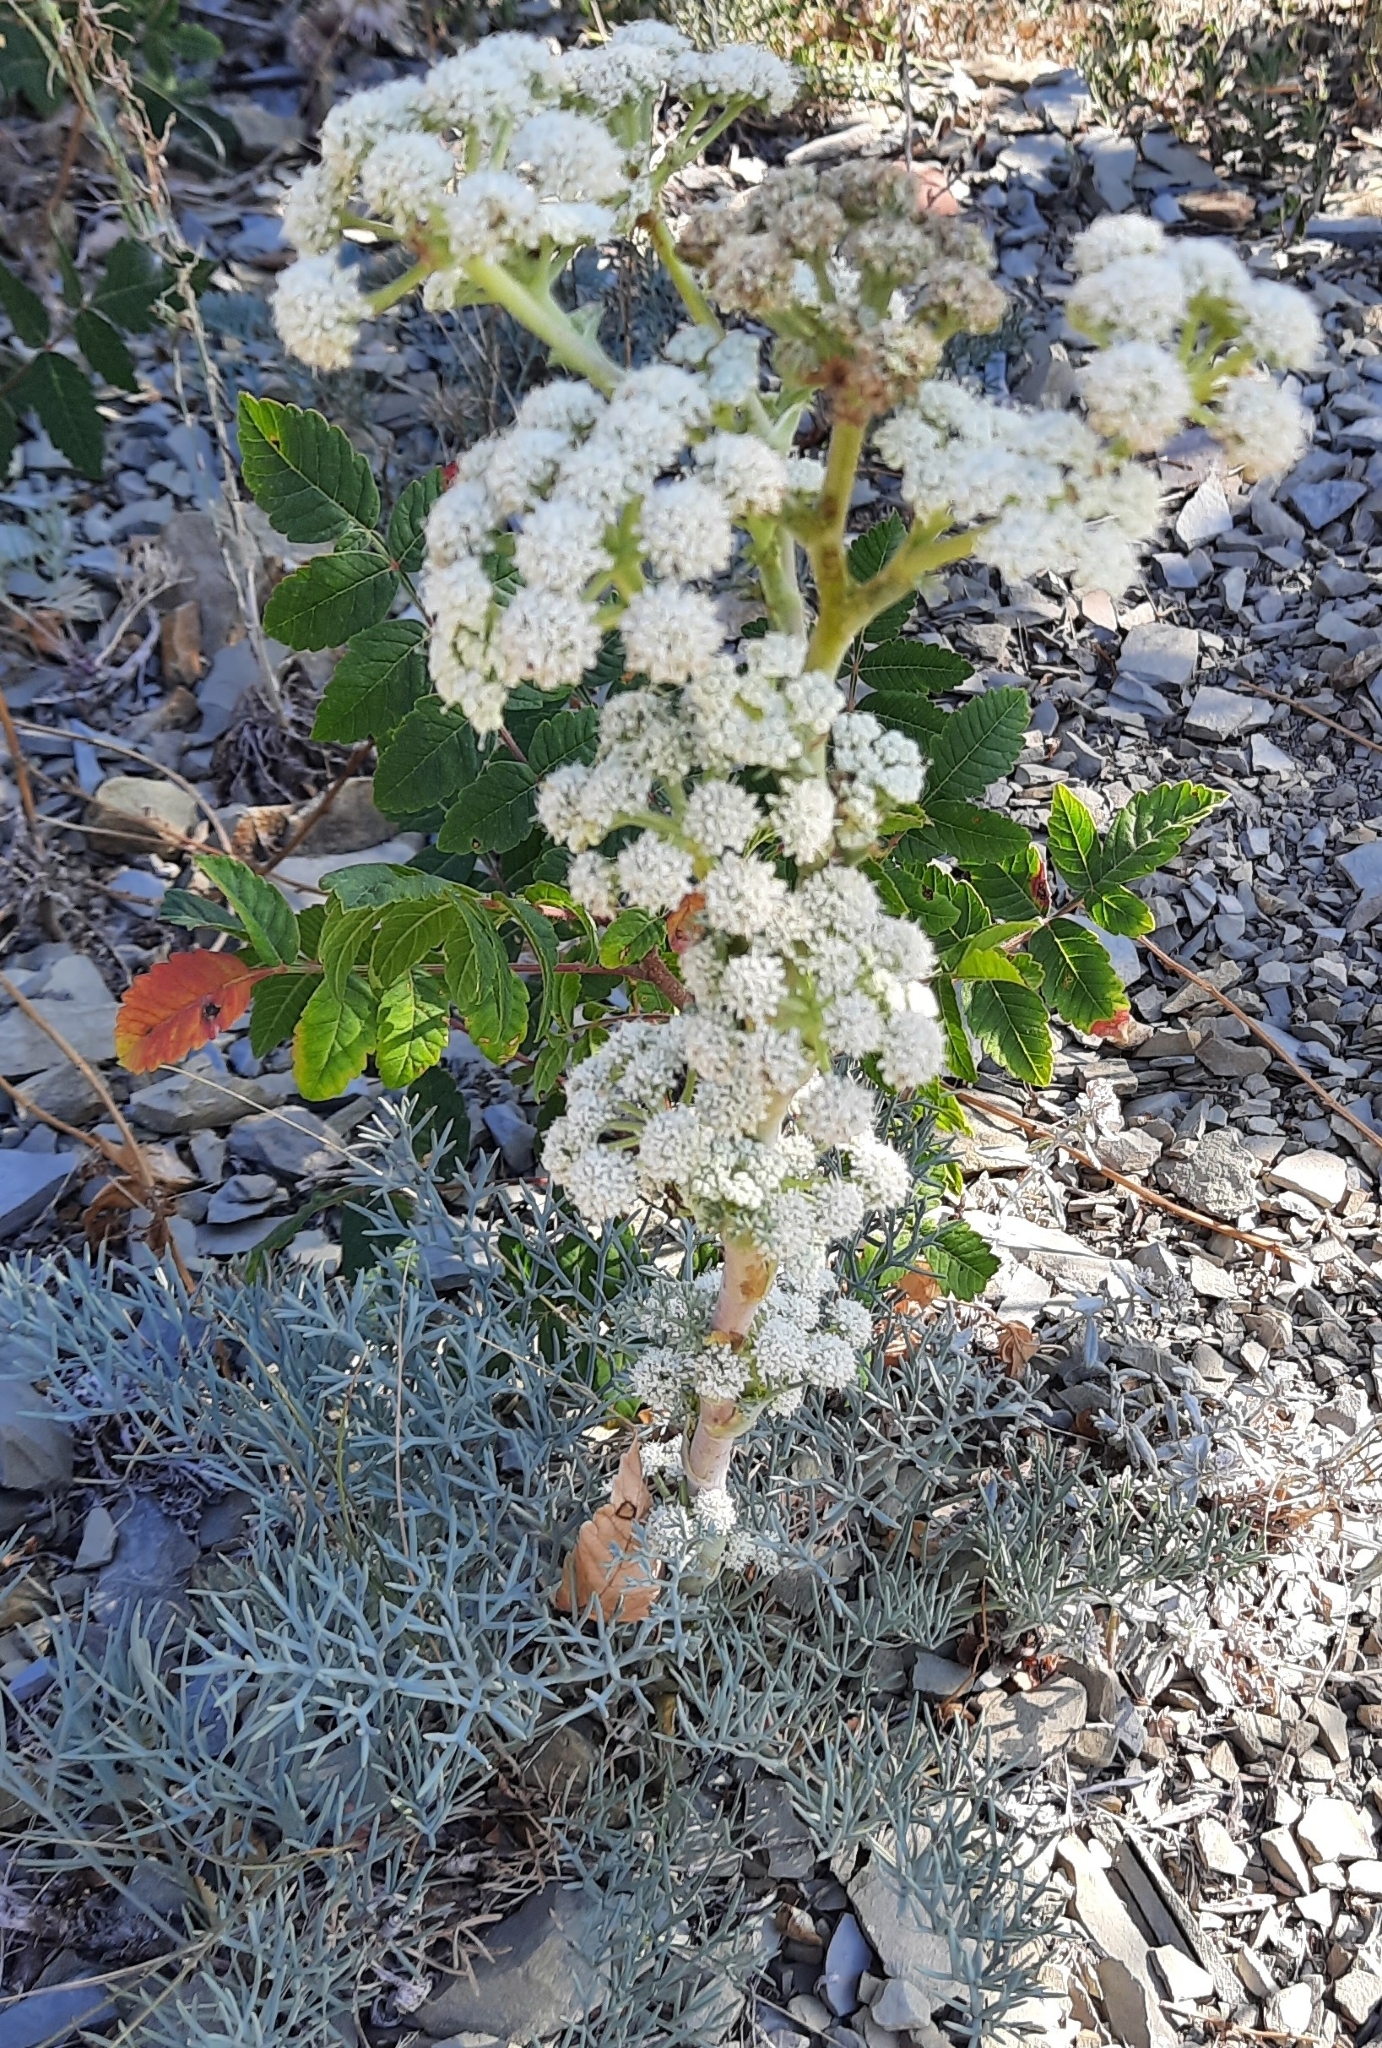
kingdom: Plantae
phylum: Tracheophyta
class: Magnoliopsida
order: Apiales
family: Apiaceae
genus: Seseli
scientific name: Seseli ponticum
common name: Pontic seseli
